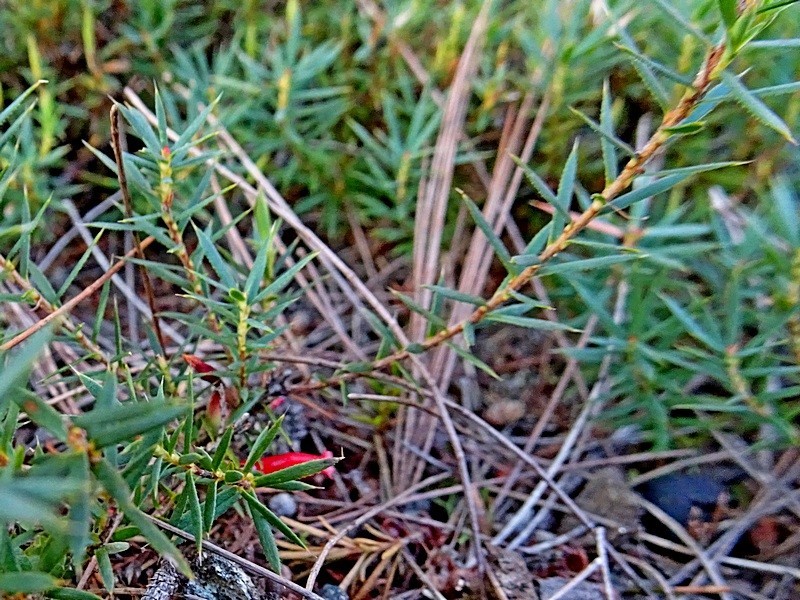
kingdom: Plantae
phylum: Tracheophyta
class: Magnoliopsida
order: Ericales
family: Ericaceae
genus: Styphelia
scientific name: Styphelia humifusa
